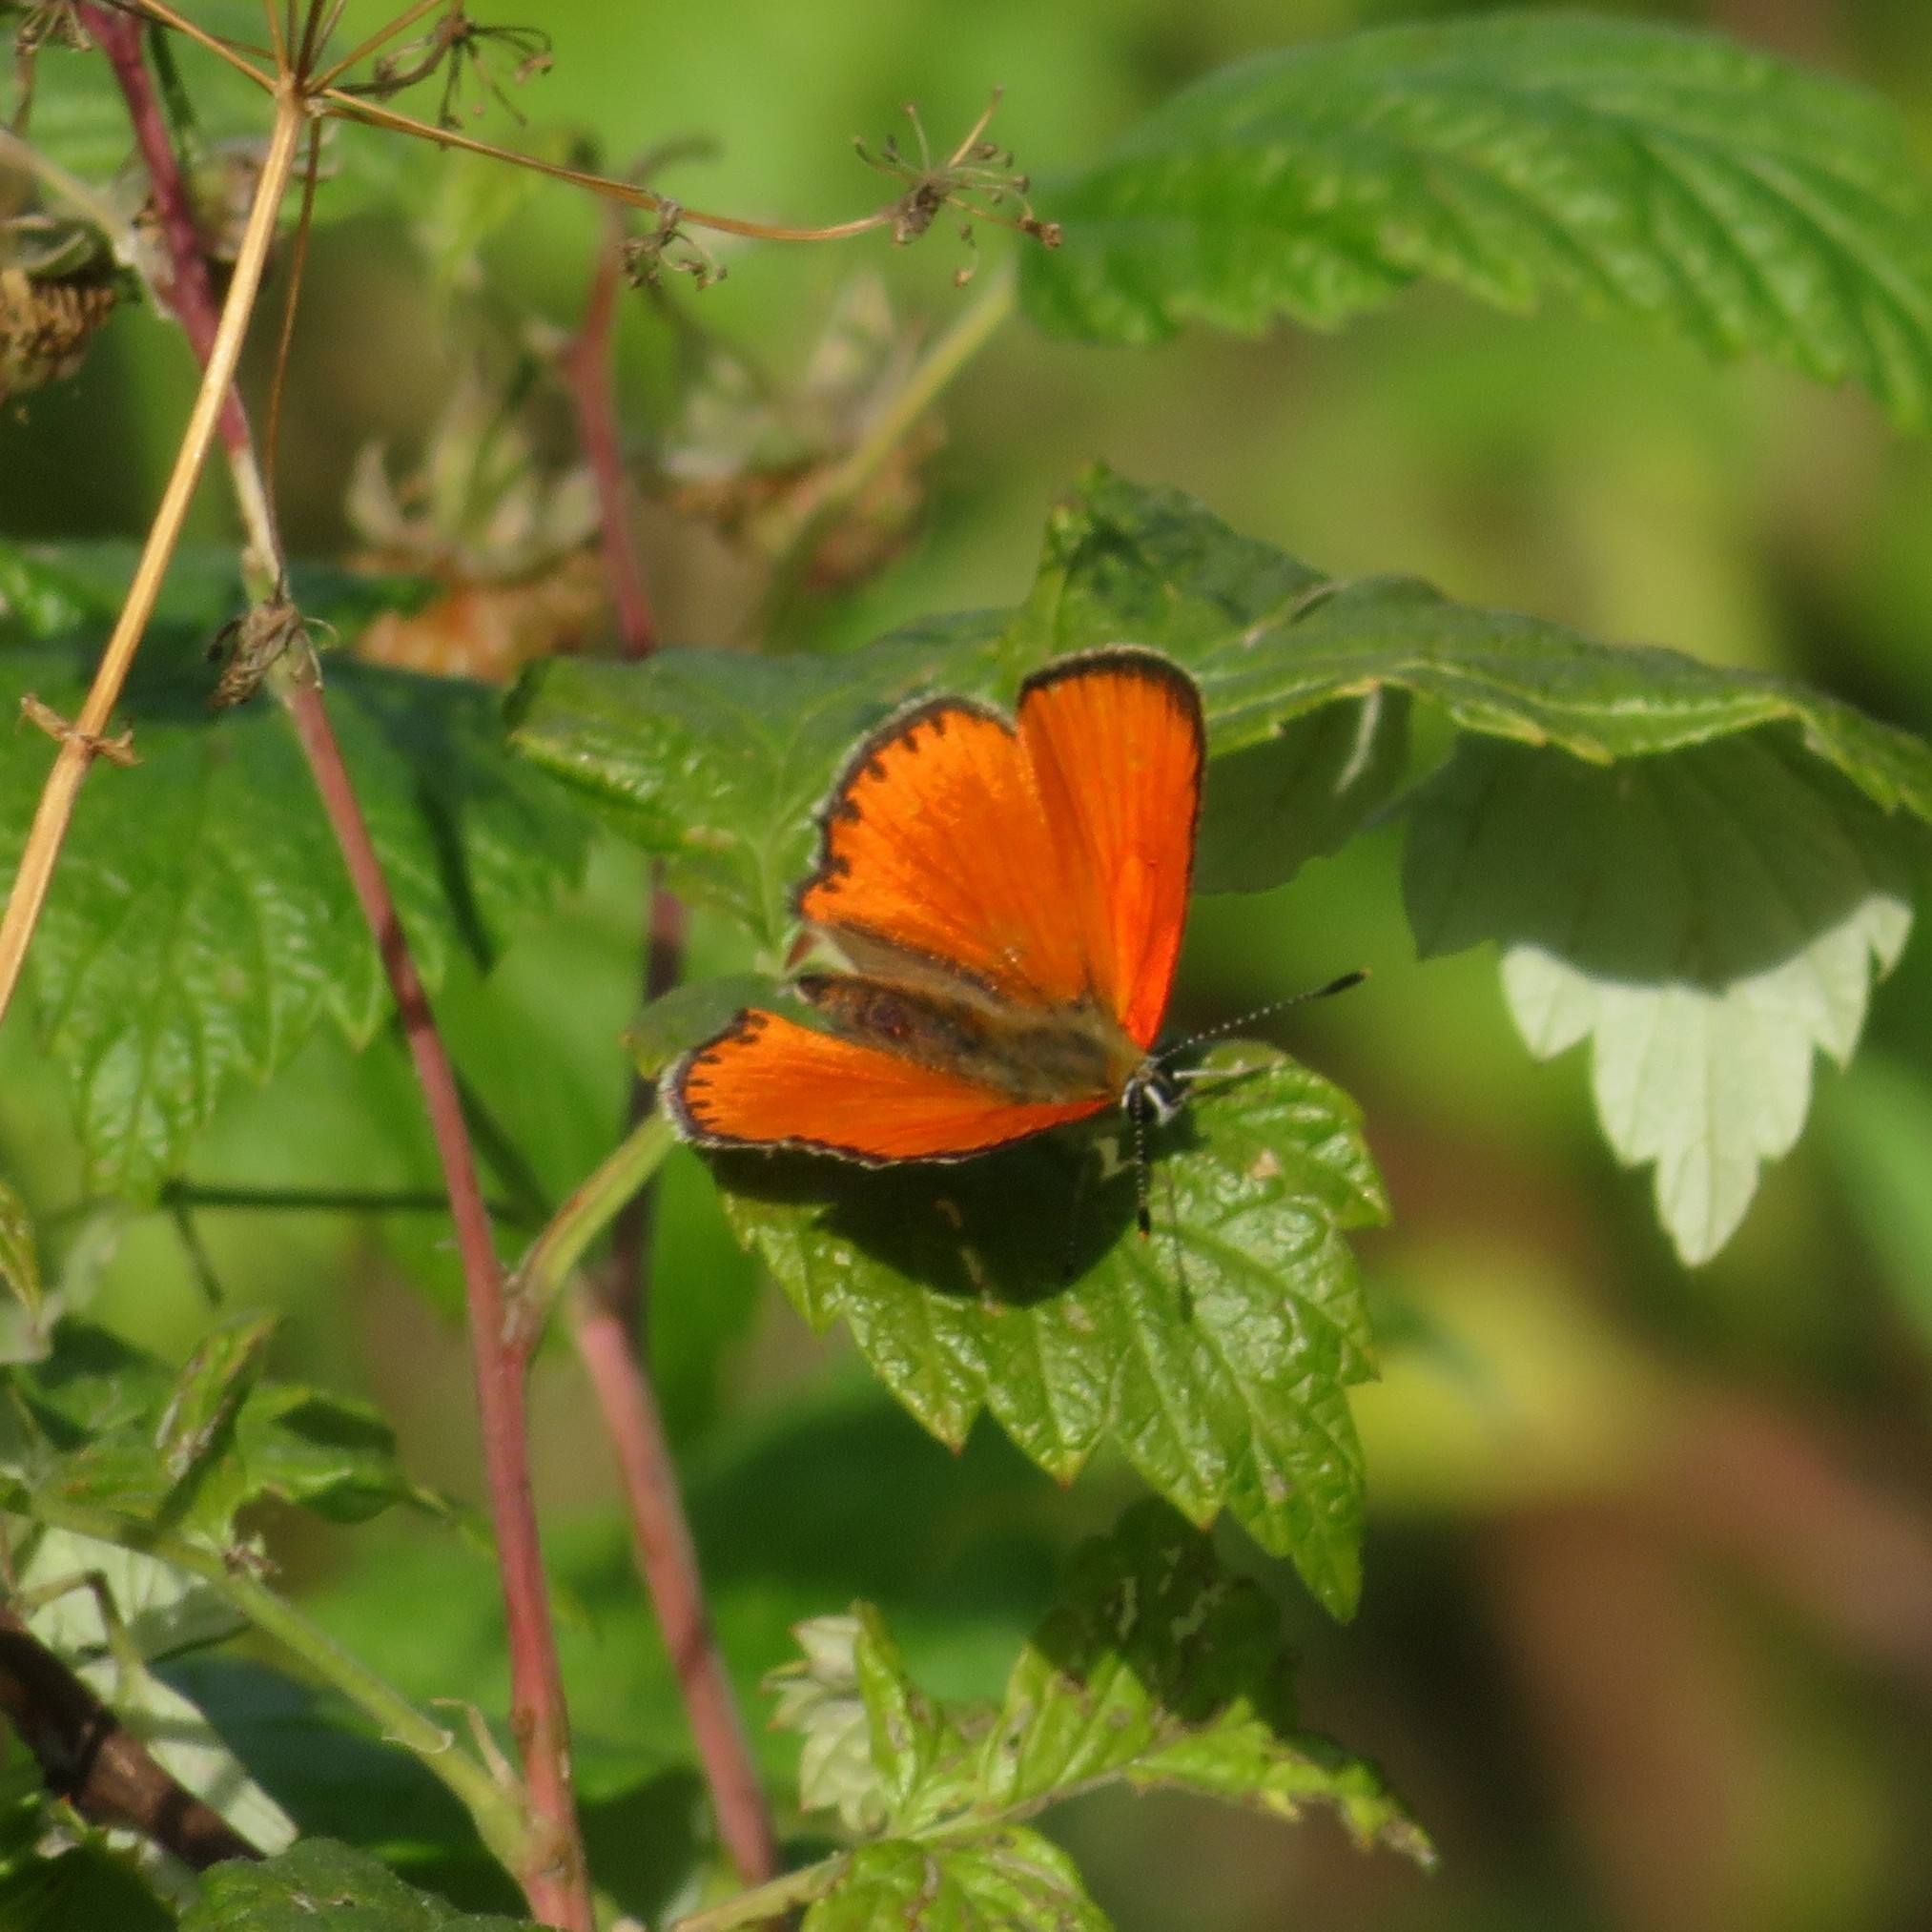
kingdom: Animalia
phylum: Arthropoda
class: Insecta
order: Lepidoptera
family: Lycaenidae
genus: Lycaena
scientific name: Lycaena virgaureae
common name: Scarce copper
